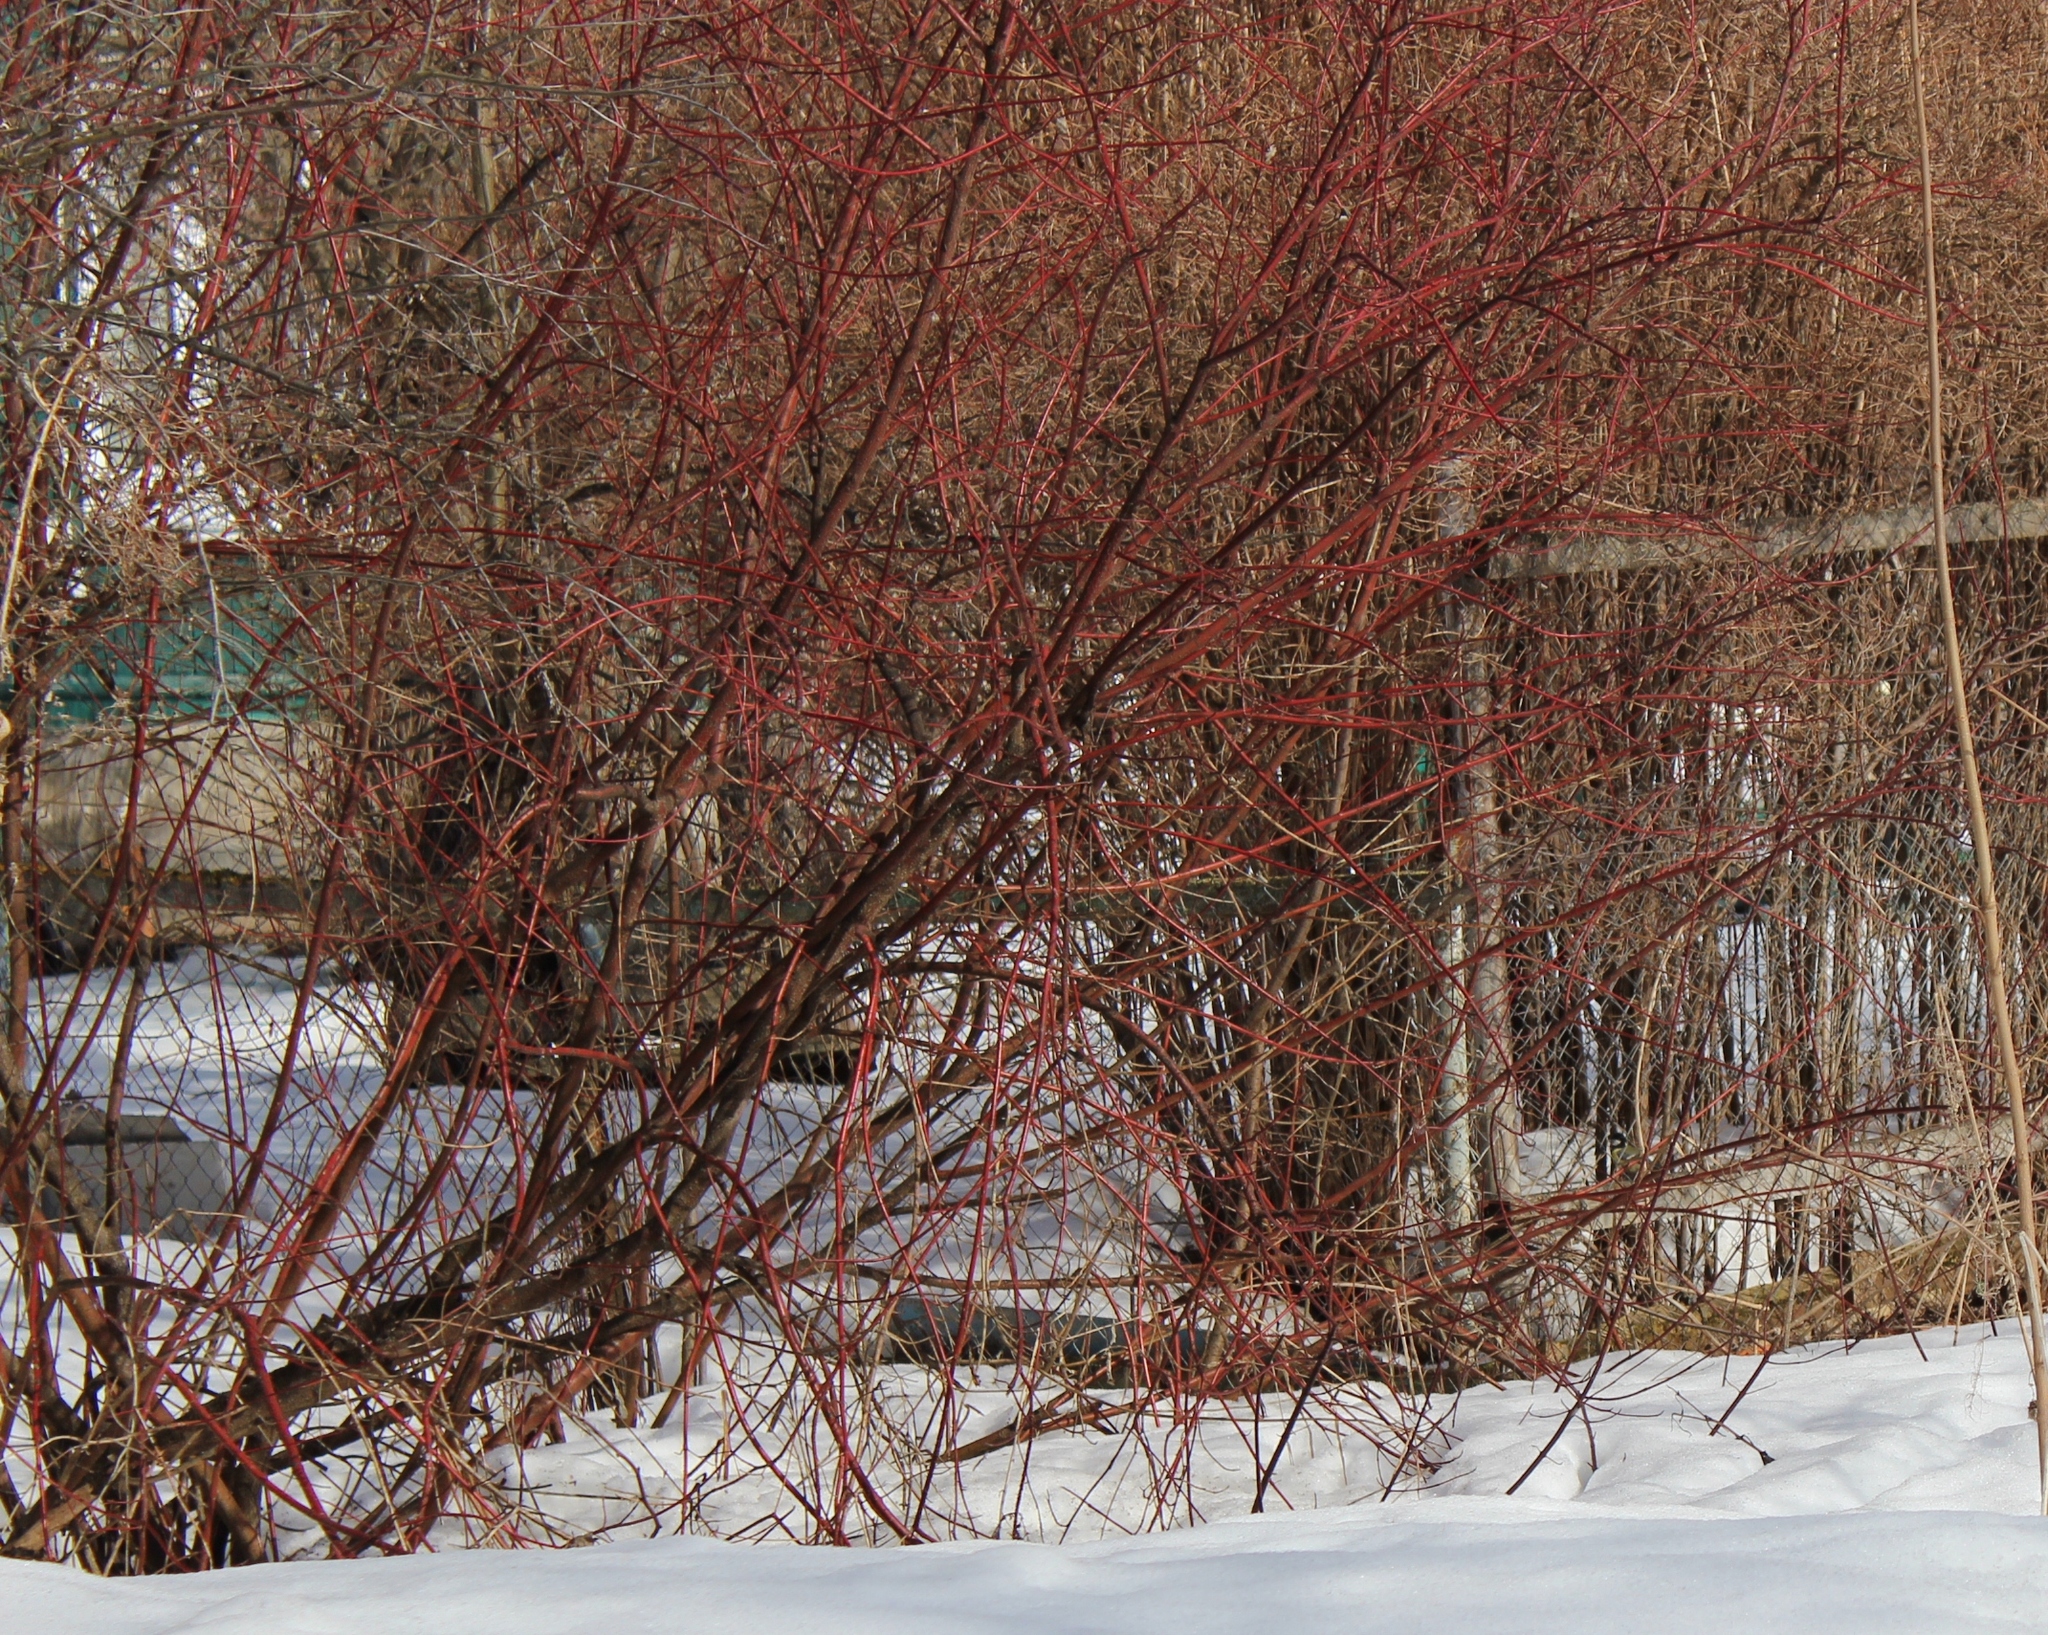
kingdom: Plantae
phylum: Tracheophyta
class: Magnoliopsida
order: Cornales
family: Cornaceae
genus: Cornus
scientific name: Cornus alba
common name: White dogwood
